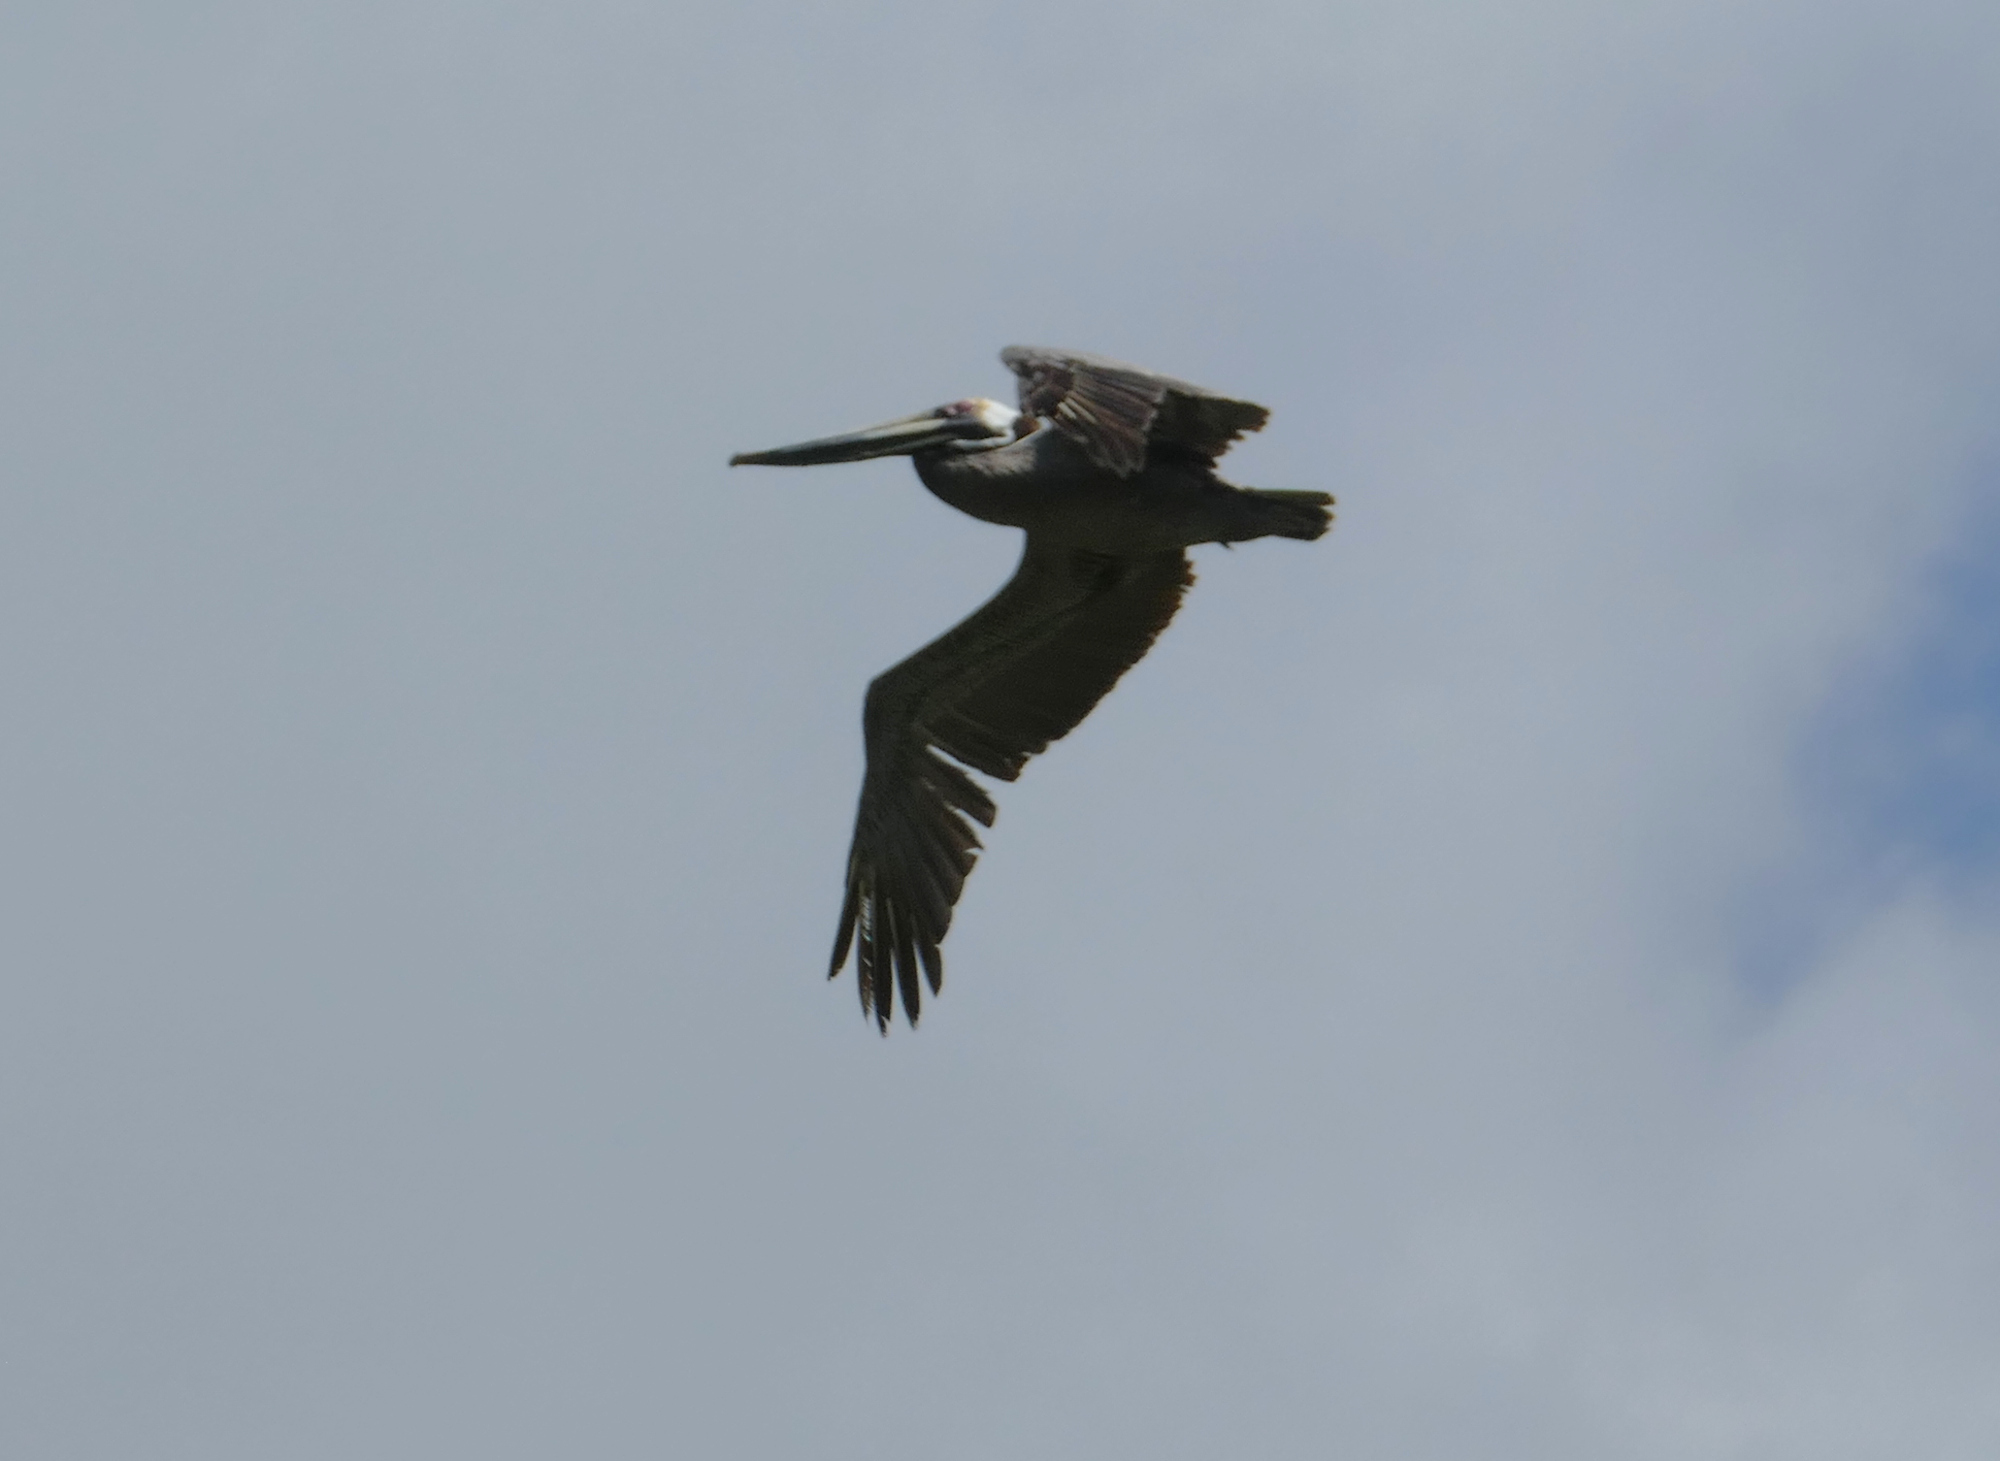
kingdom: Animalia
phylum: Chordata
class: Aves
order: Pelecaniformes
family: Pelecanidae
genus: Pelecanus
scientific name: Pelecanus occidentalis
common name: Brown pelican
